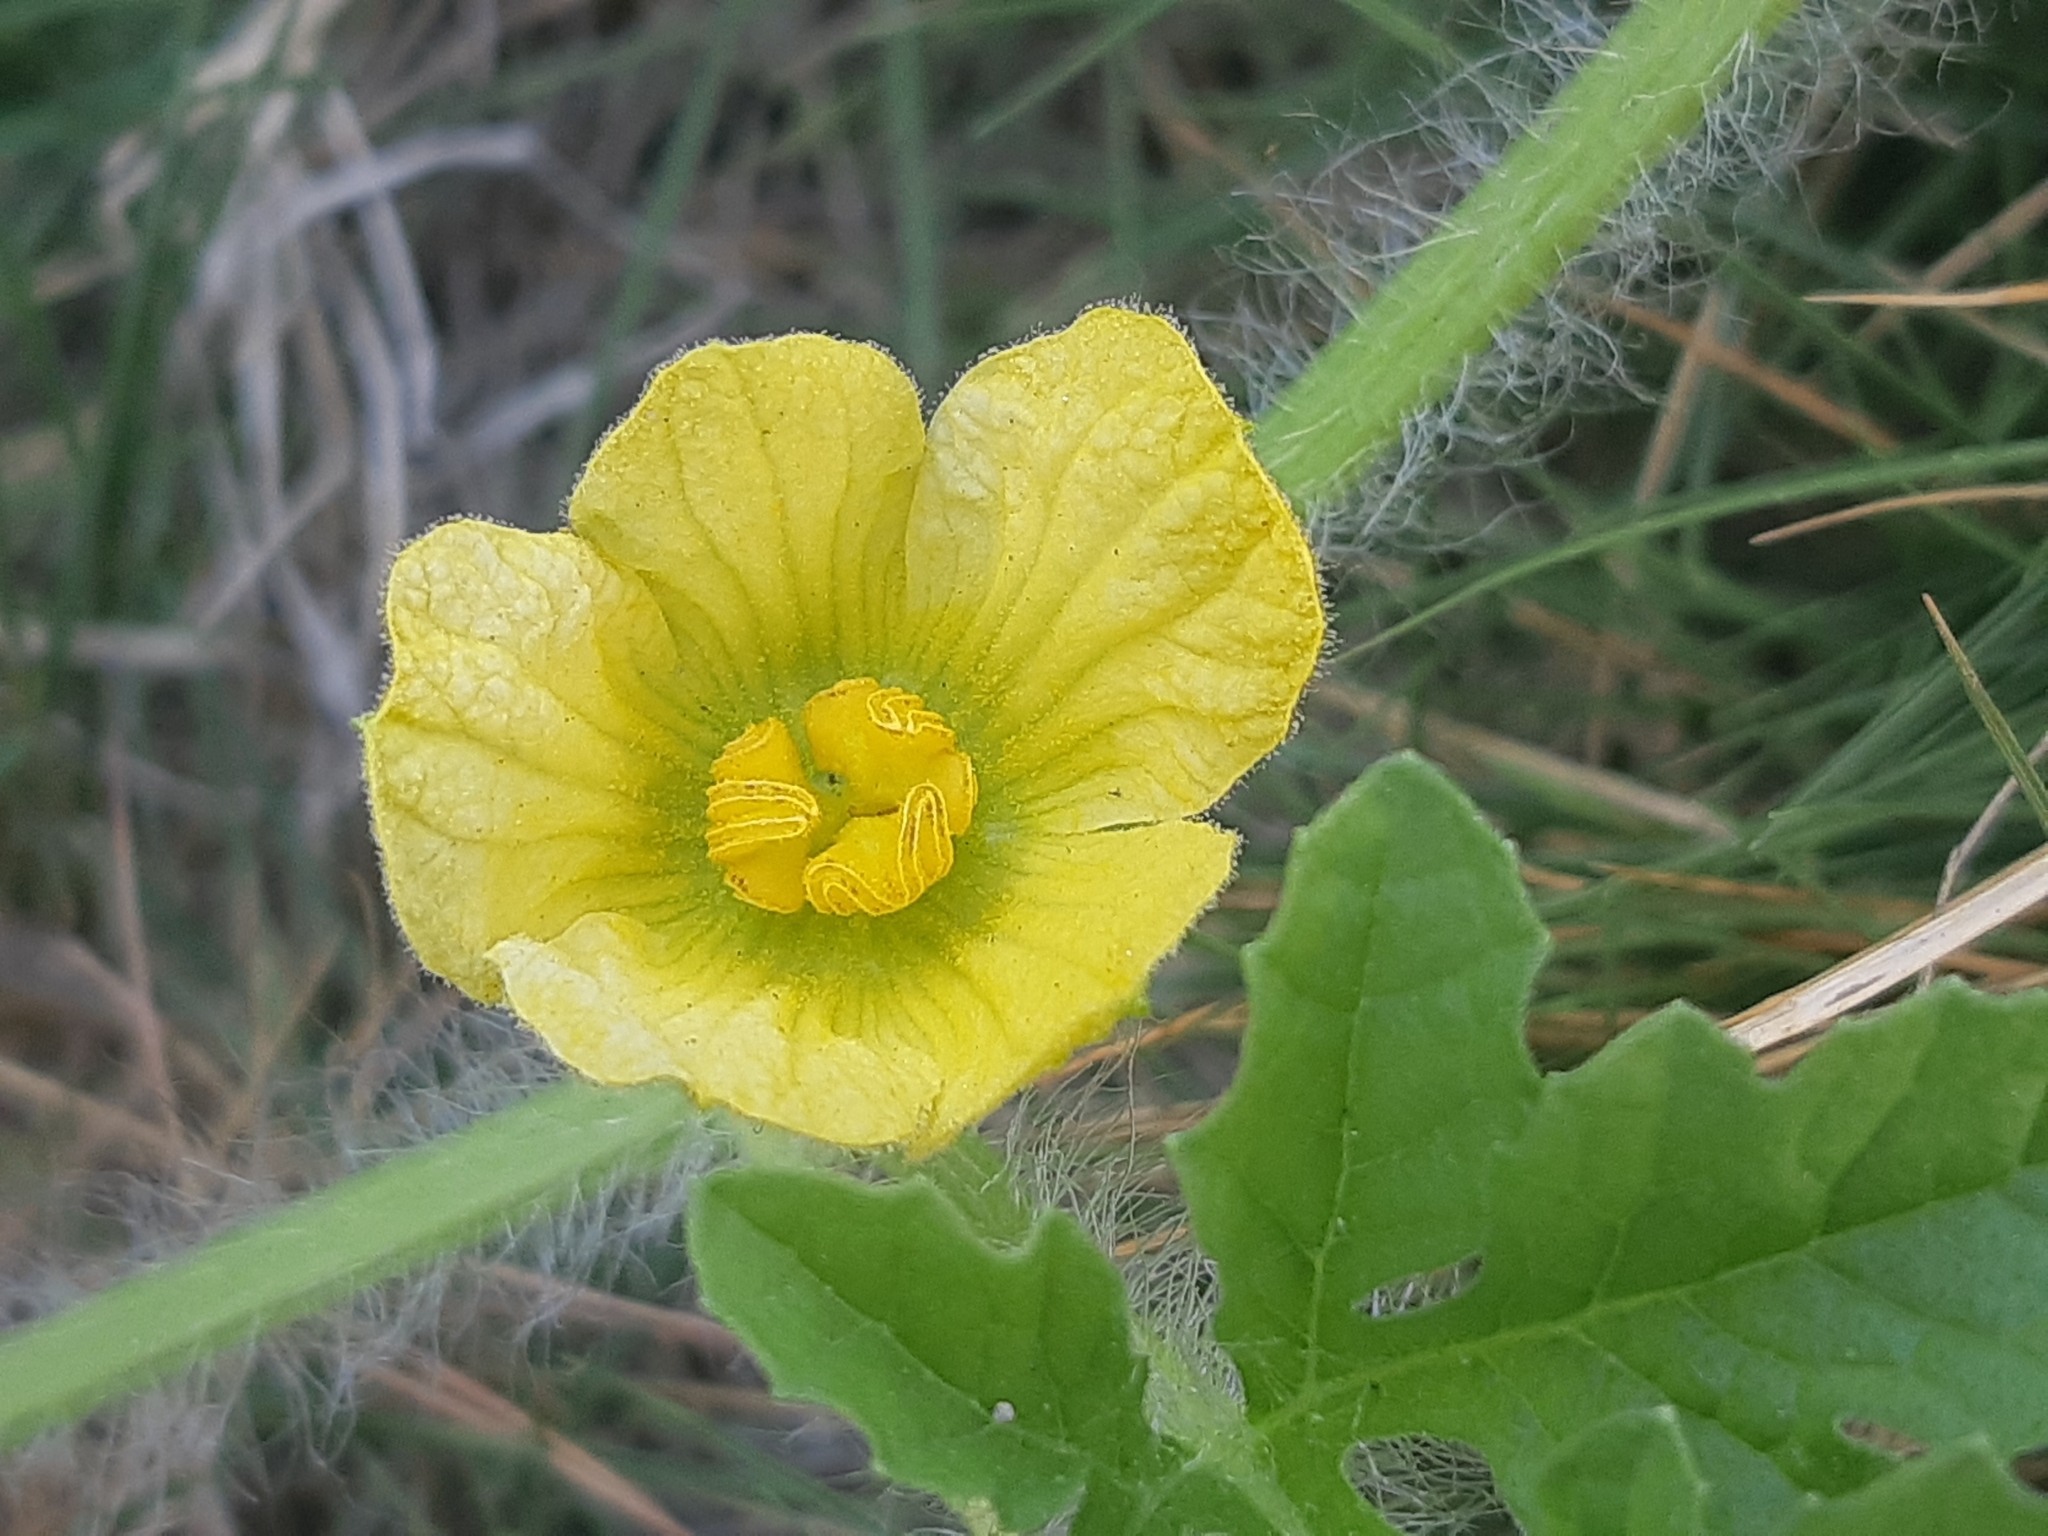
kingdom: Plantae
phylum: Tracheophyta
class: Magnoliopsida
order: Cucurbitales
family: Cucurbitaceae
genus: Citrullus
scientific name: Citrullus lanatus
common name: Watermelon
